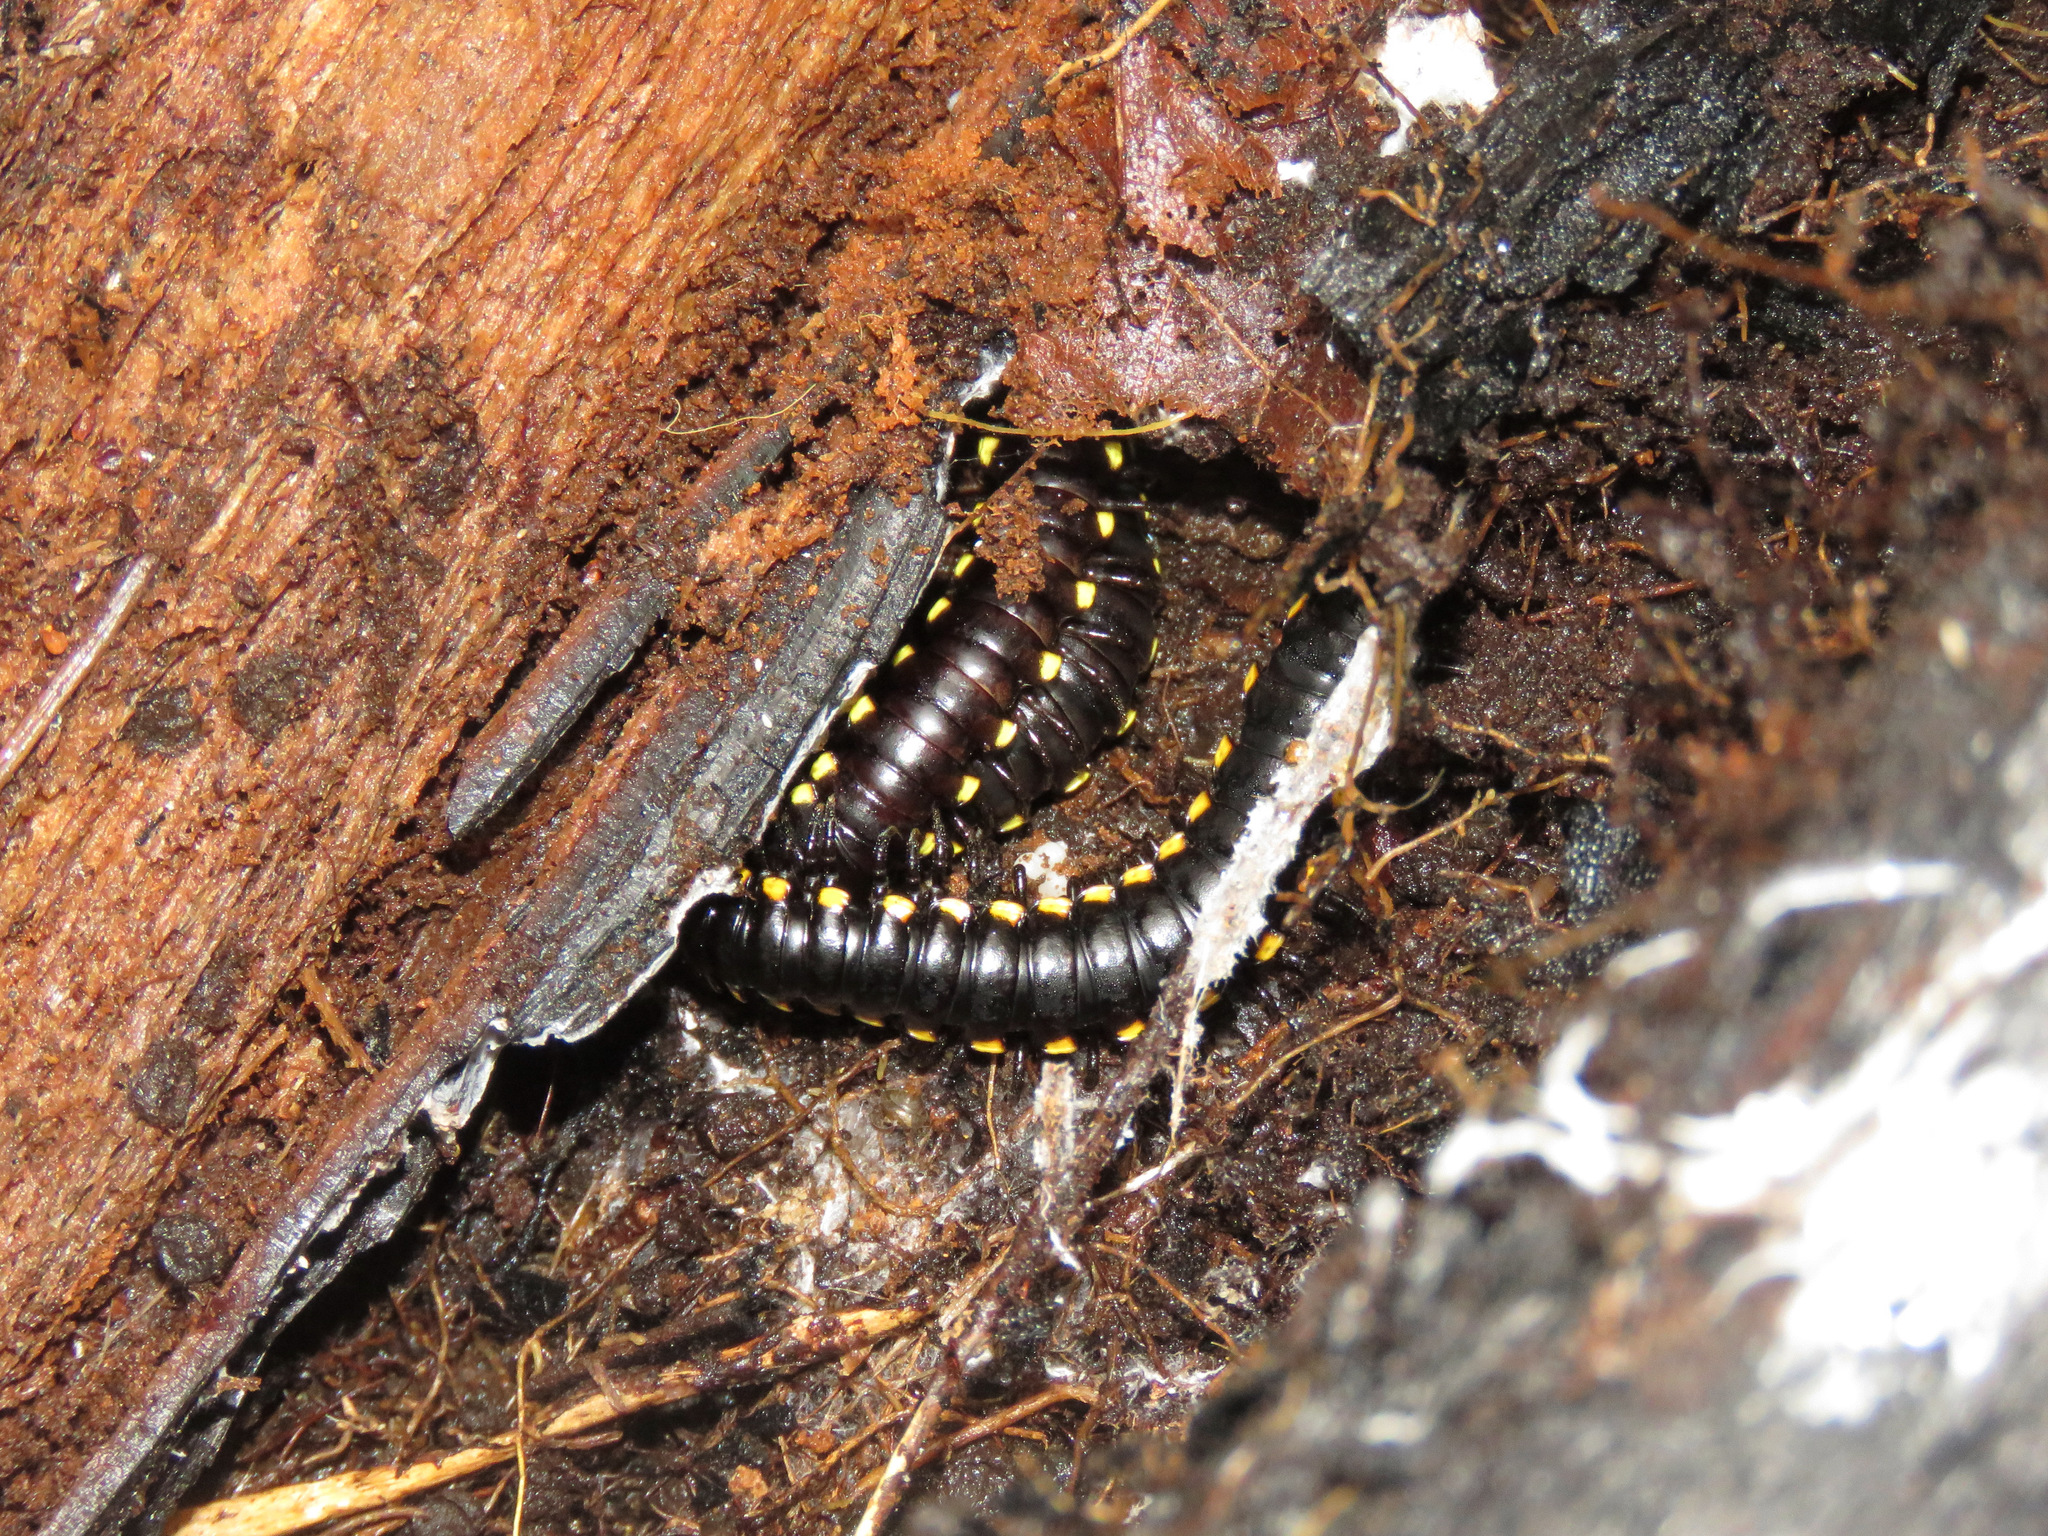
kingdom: Animalia
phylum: Arthropoda
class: Diplopoda
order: Polydesmida
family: Xystodesmidae
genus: Harpaphe
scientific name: Harpaphe haydeniana
